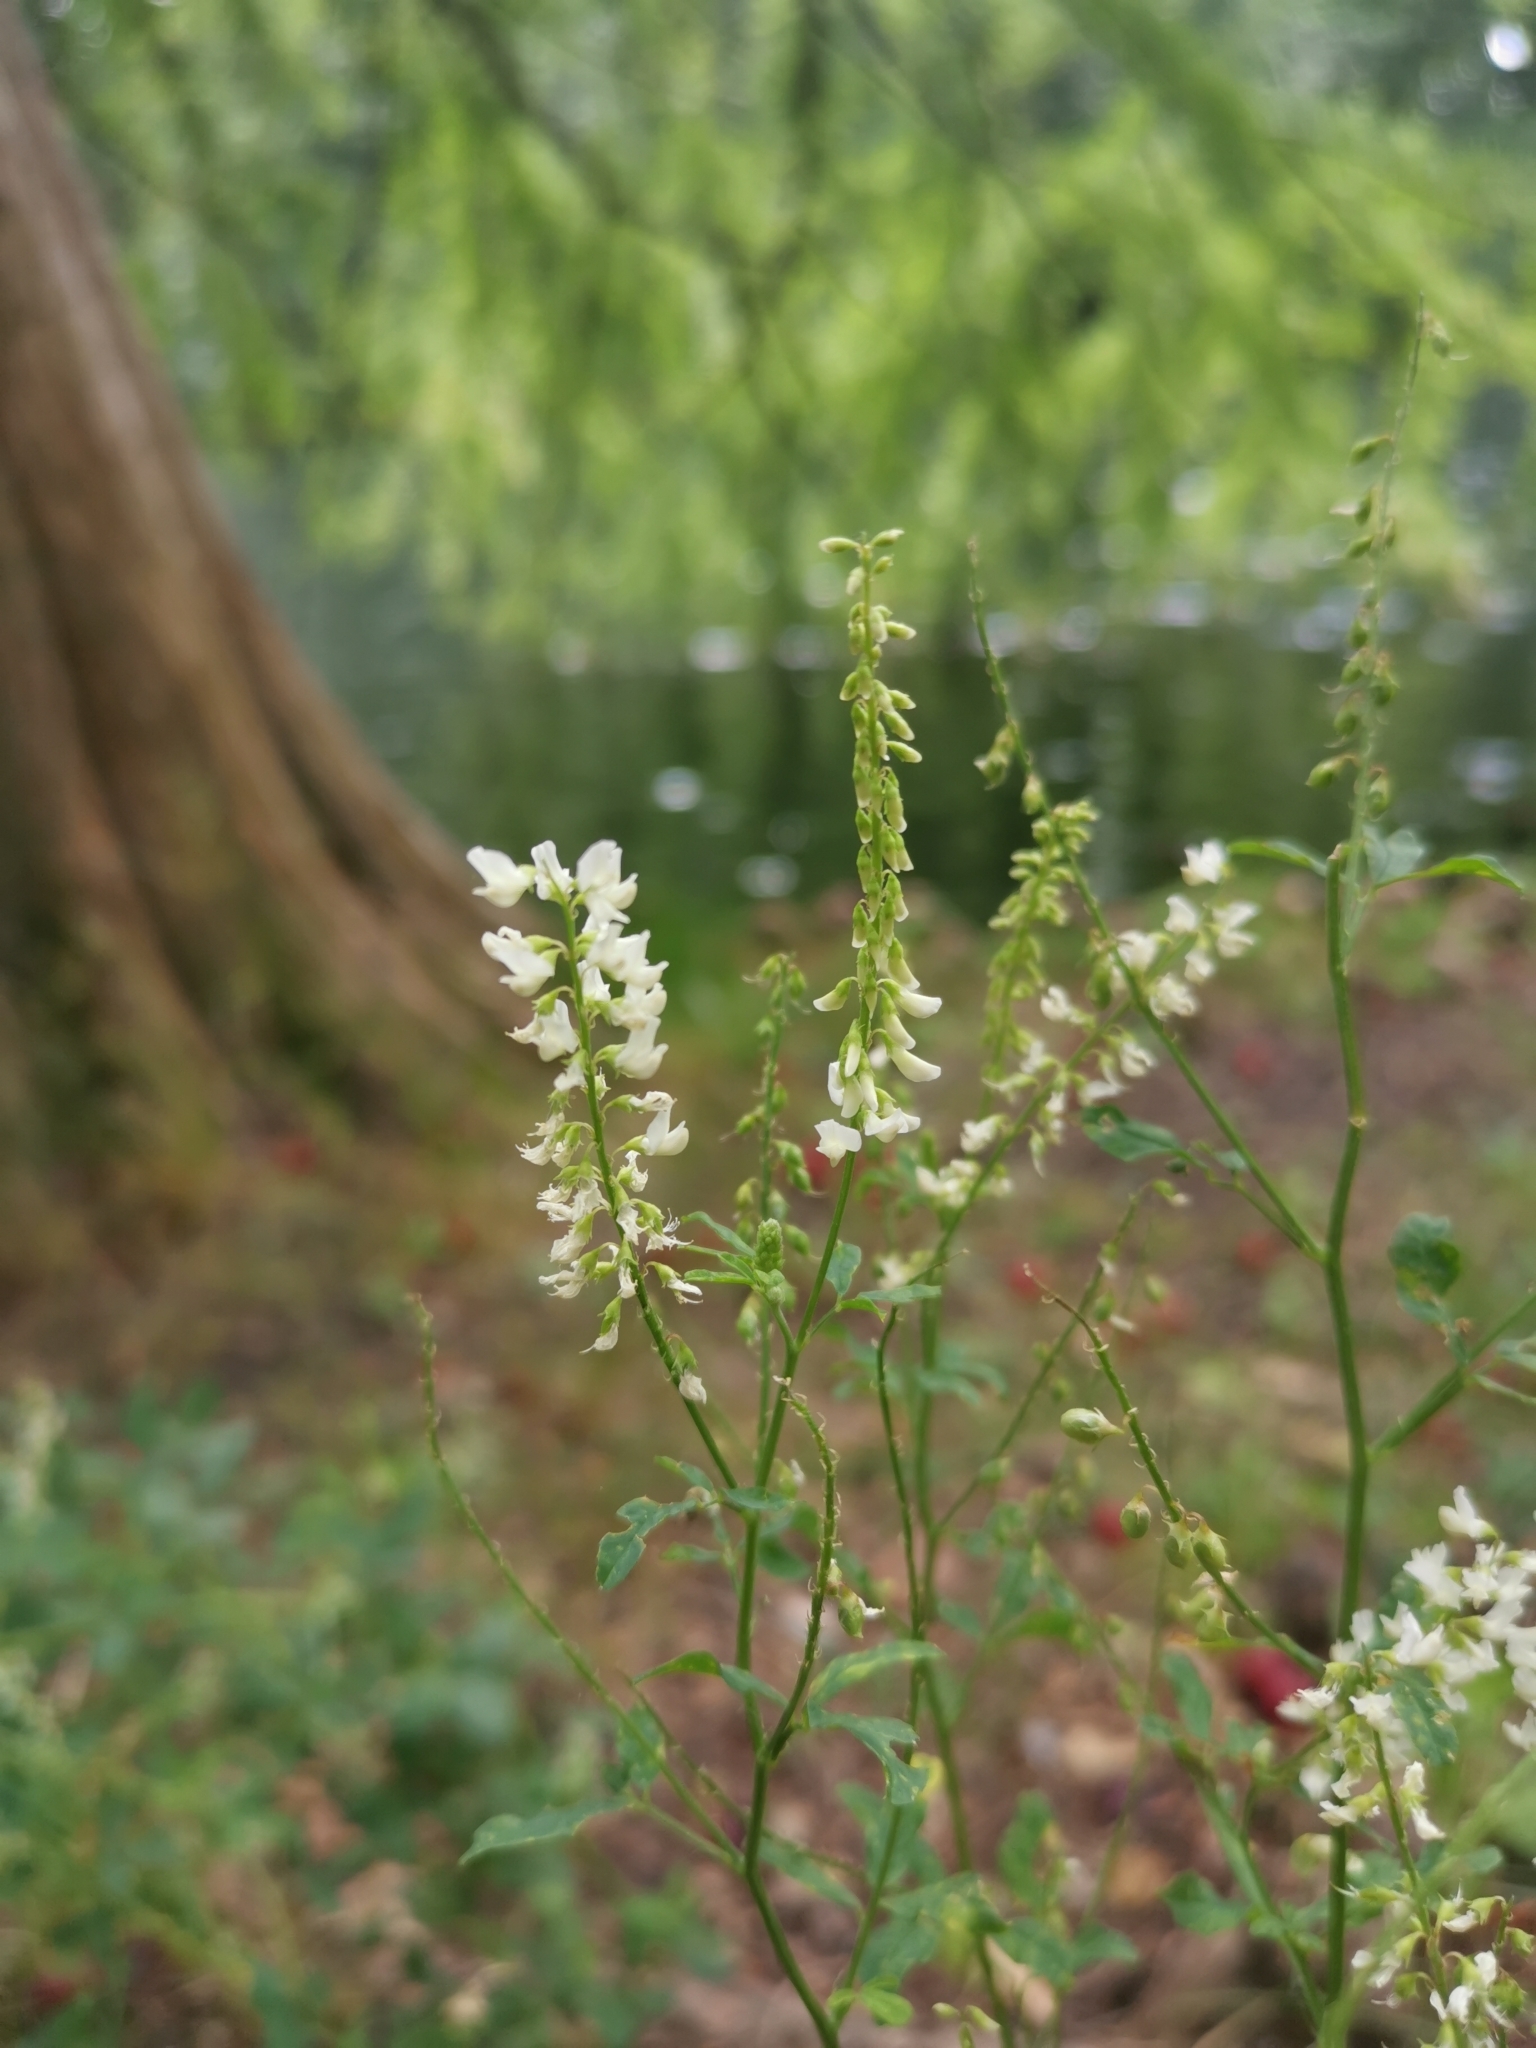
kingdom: Plantae
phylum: Tracheophyta
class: Magnoliopsida
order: Fabales
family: Fabaceae
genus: Melilotus
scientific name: Melilotus albus
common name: White melilot
